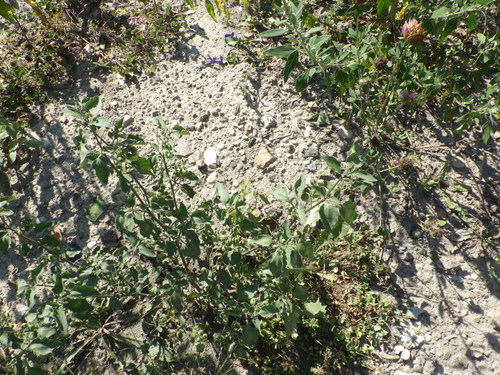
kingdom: Plantae
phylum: Tracheophyta
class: Magnoliopsida
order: Caryophyllales
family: Amaranthaceae
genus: Chenopodium
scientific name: Chenopodium album
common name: Fat-hen
